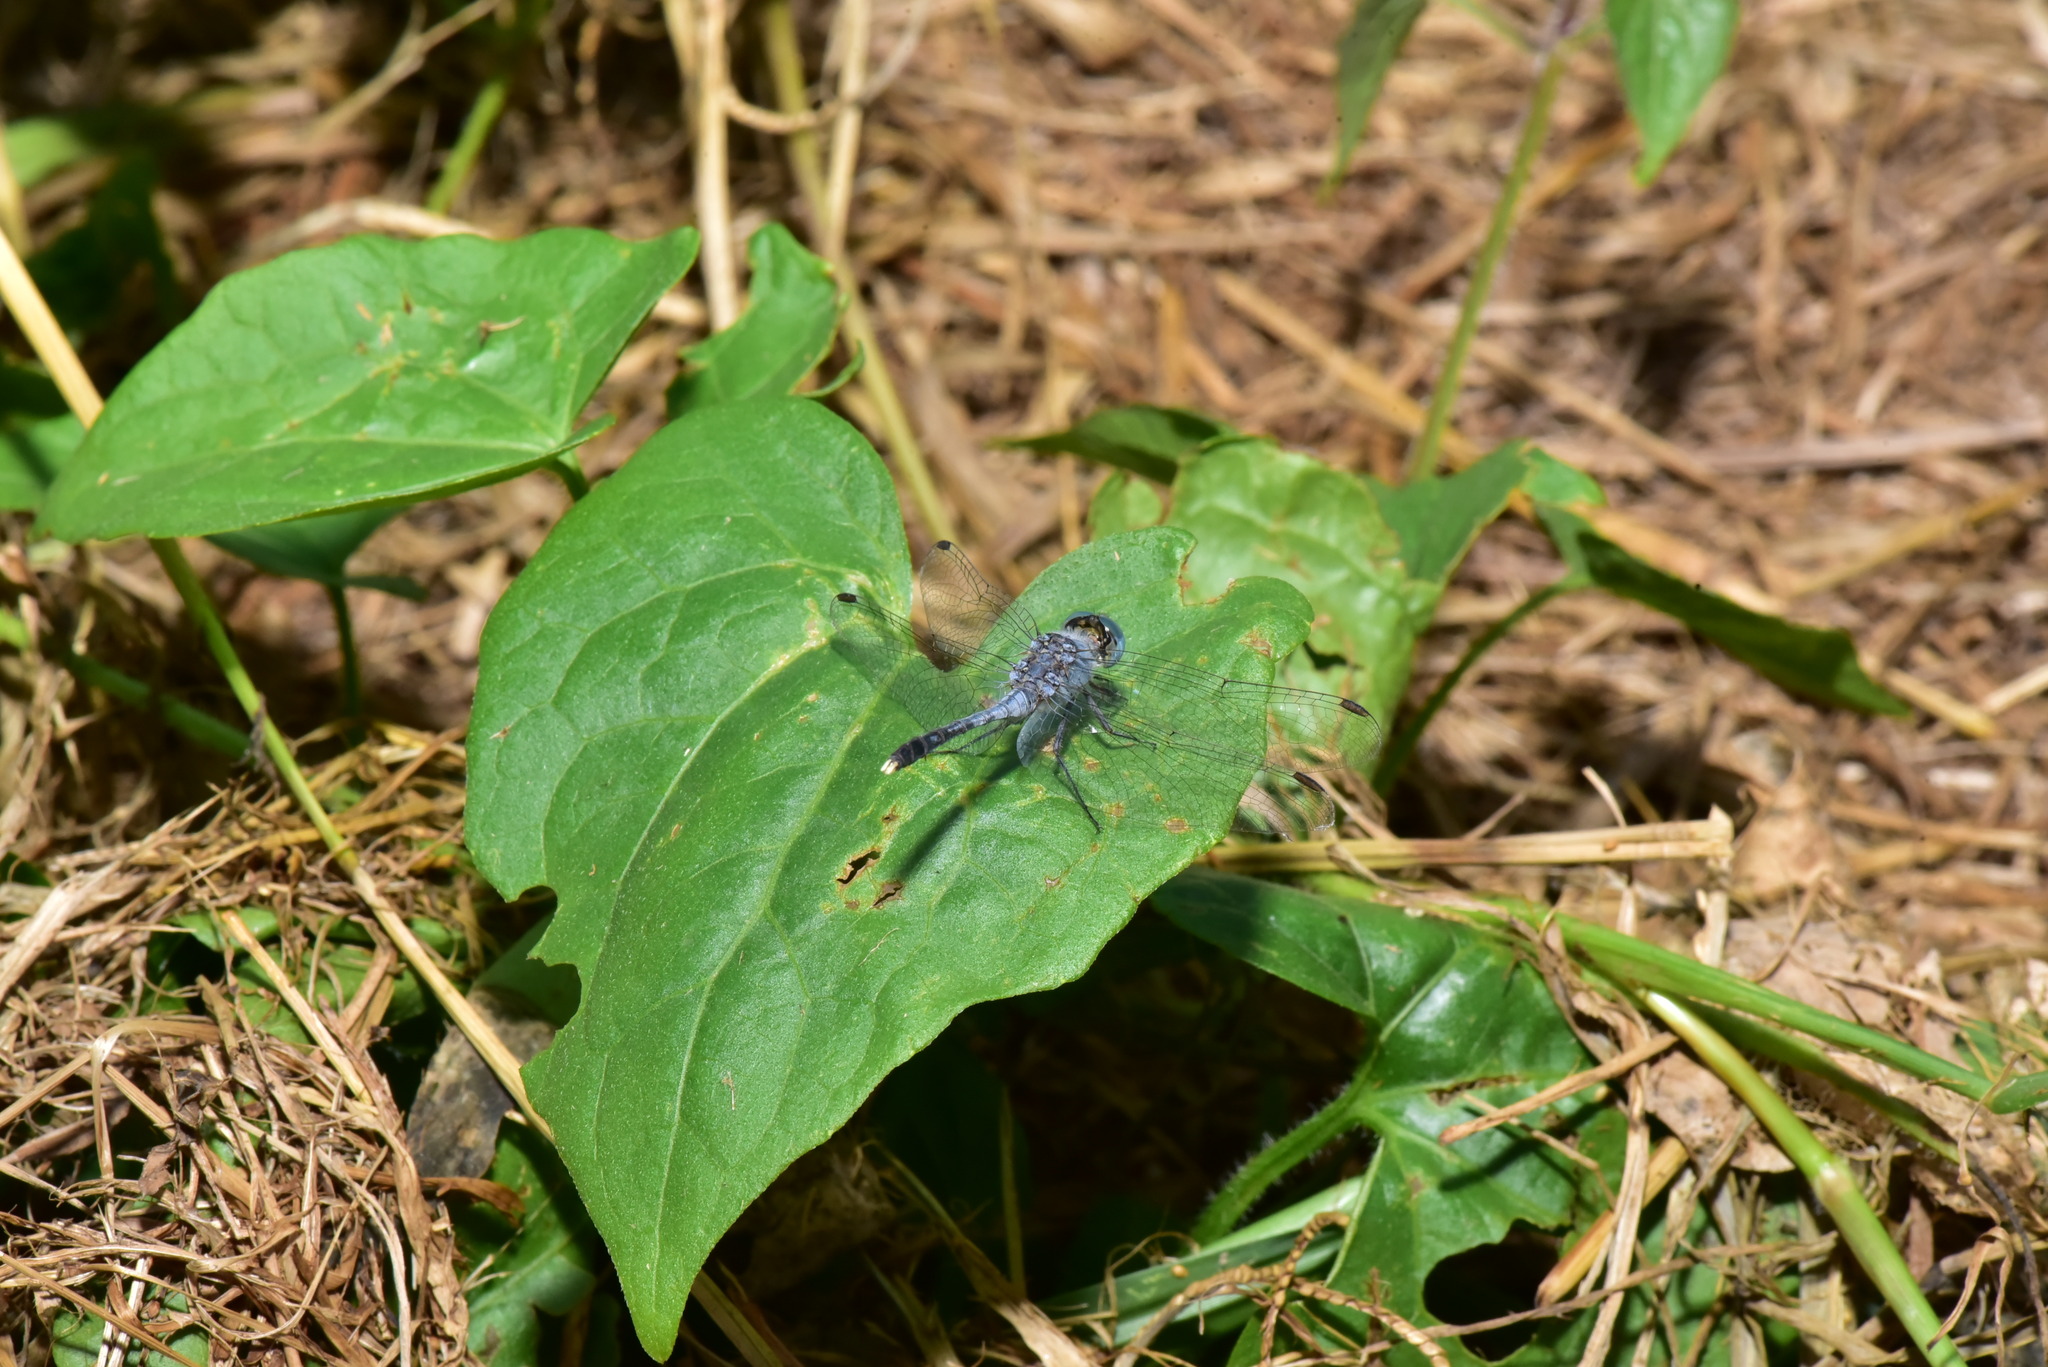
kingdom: Animalia
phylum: Arthropoda
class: Insecta
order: Odonata
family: Libellulidae
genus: Diplacodes
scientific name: Diplacodes trivialis
